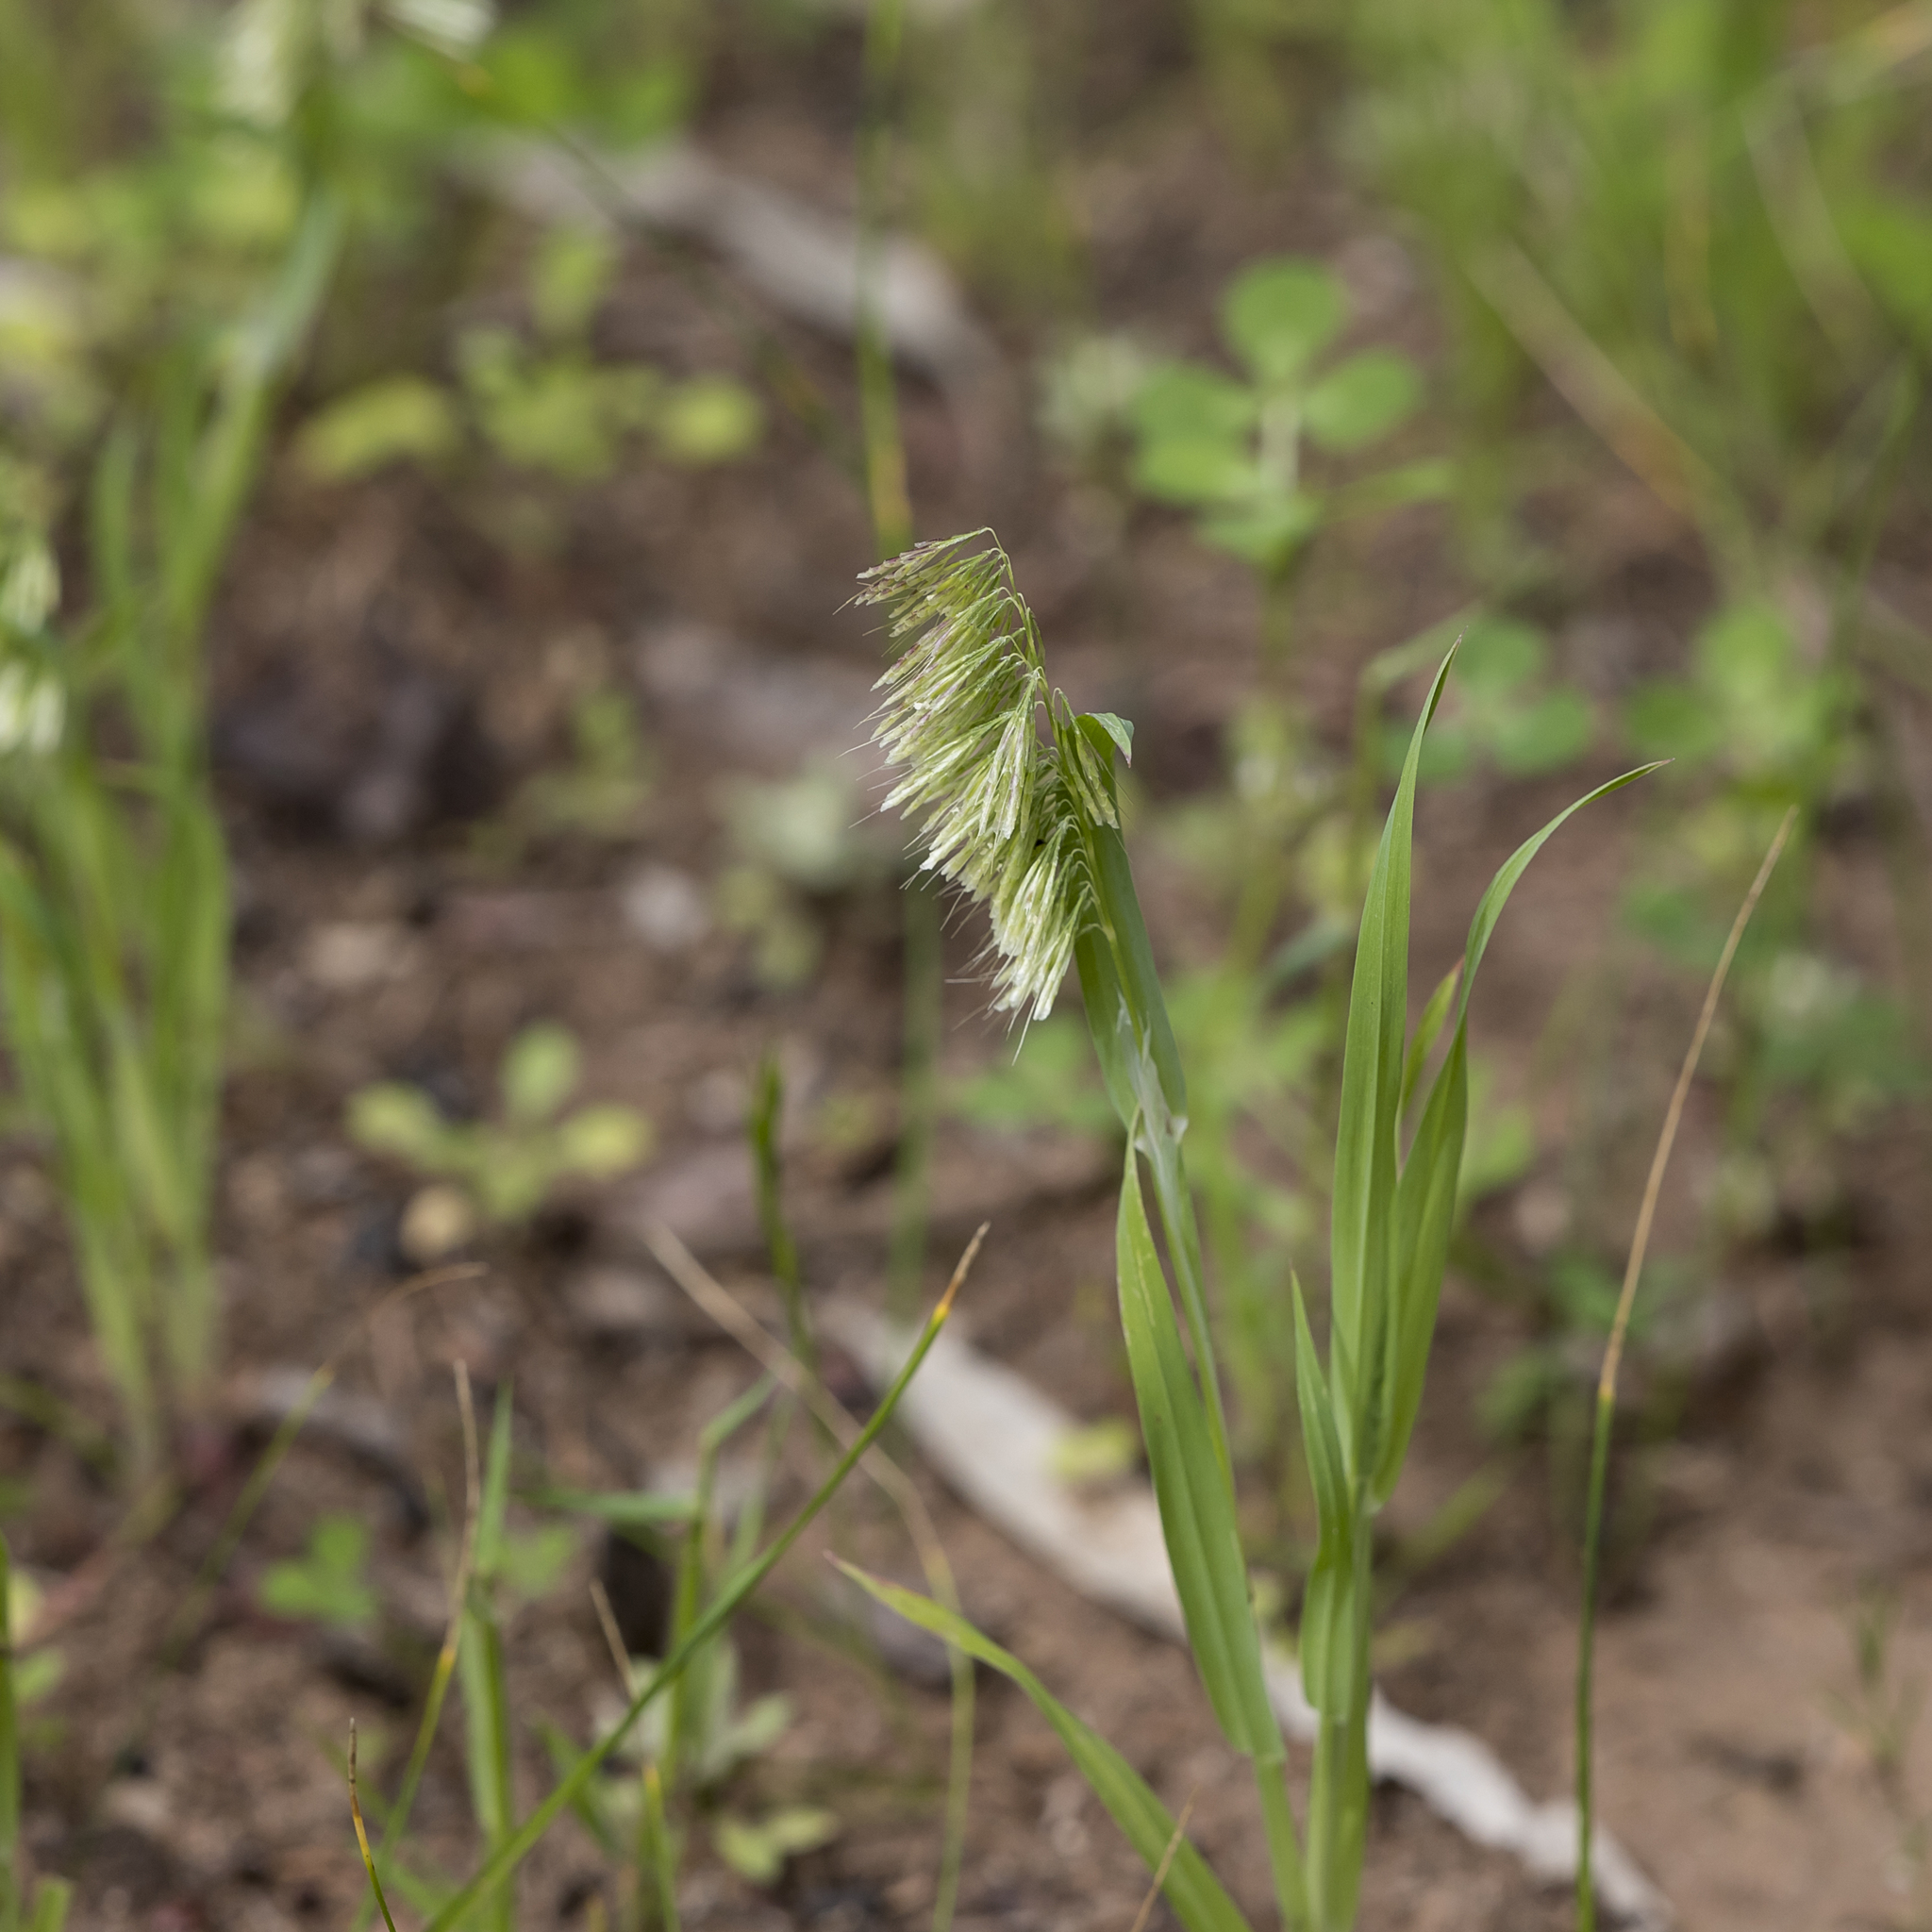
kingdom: Plantae
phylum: Tracheophyta
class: Liliopsida
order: Poales
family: Poaceae
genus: Lamarckia
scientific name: Lamarckia aurea
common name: Golden dog's-tail
